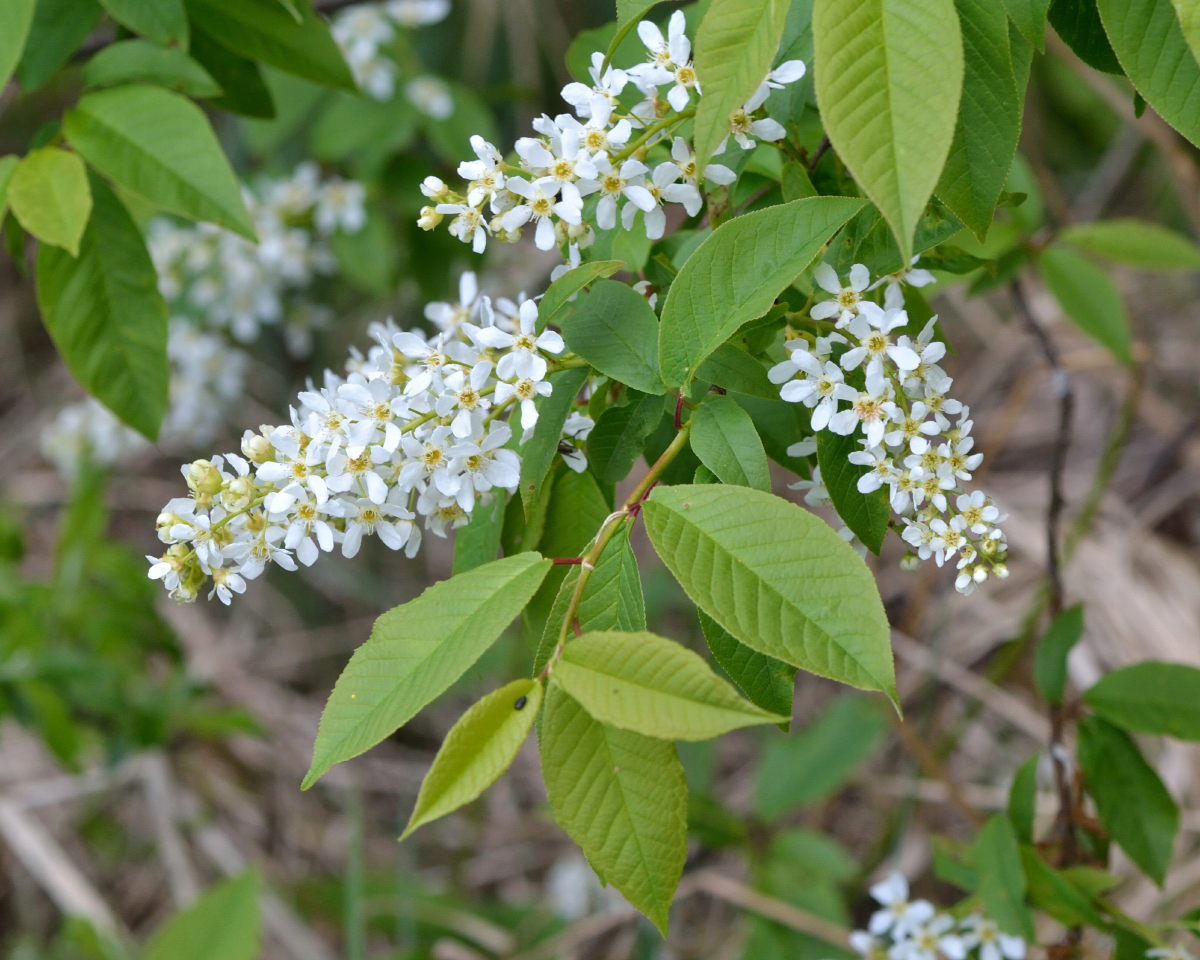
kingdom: Plantae
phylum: Tracheophyta
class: Magnoliopsida
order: Rosales
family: Rosaceae
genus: Prunus
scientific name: Prunus padus
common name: Bird cherry
